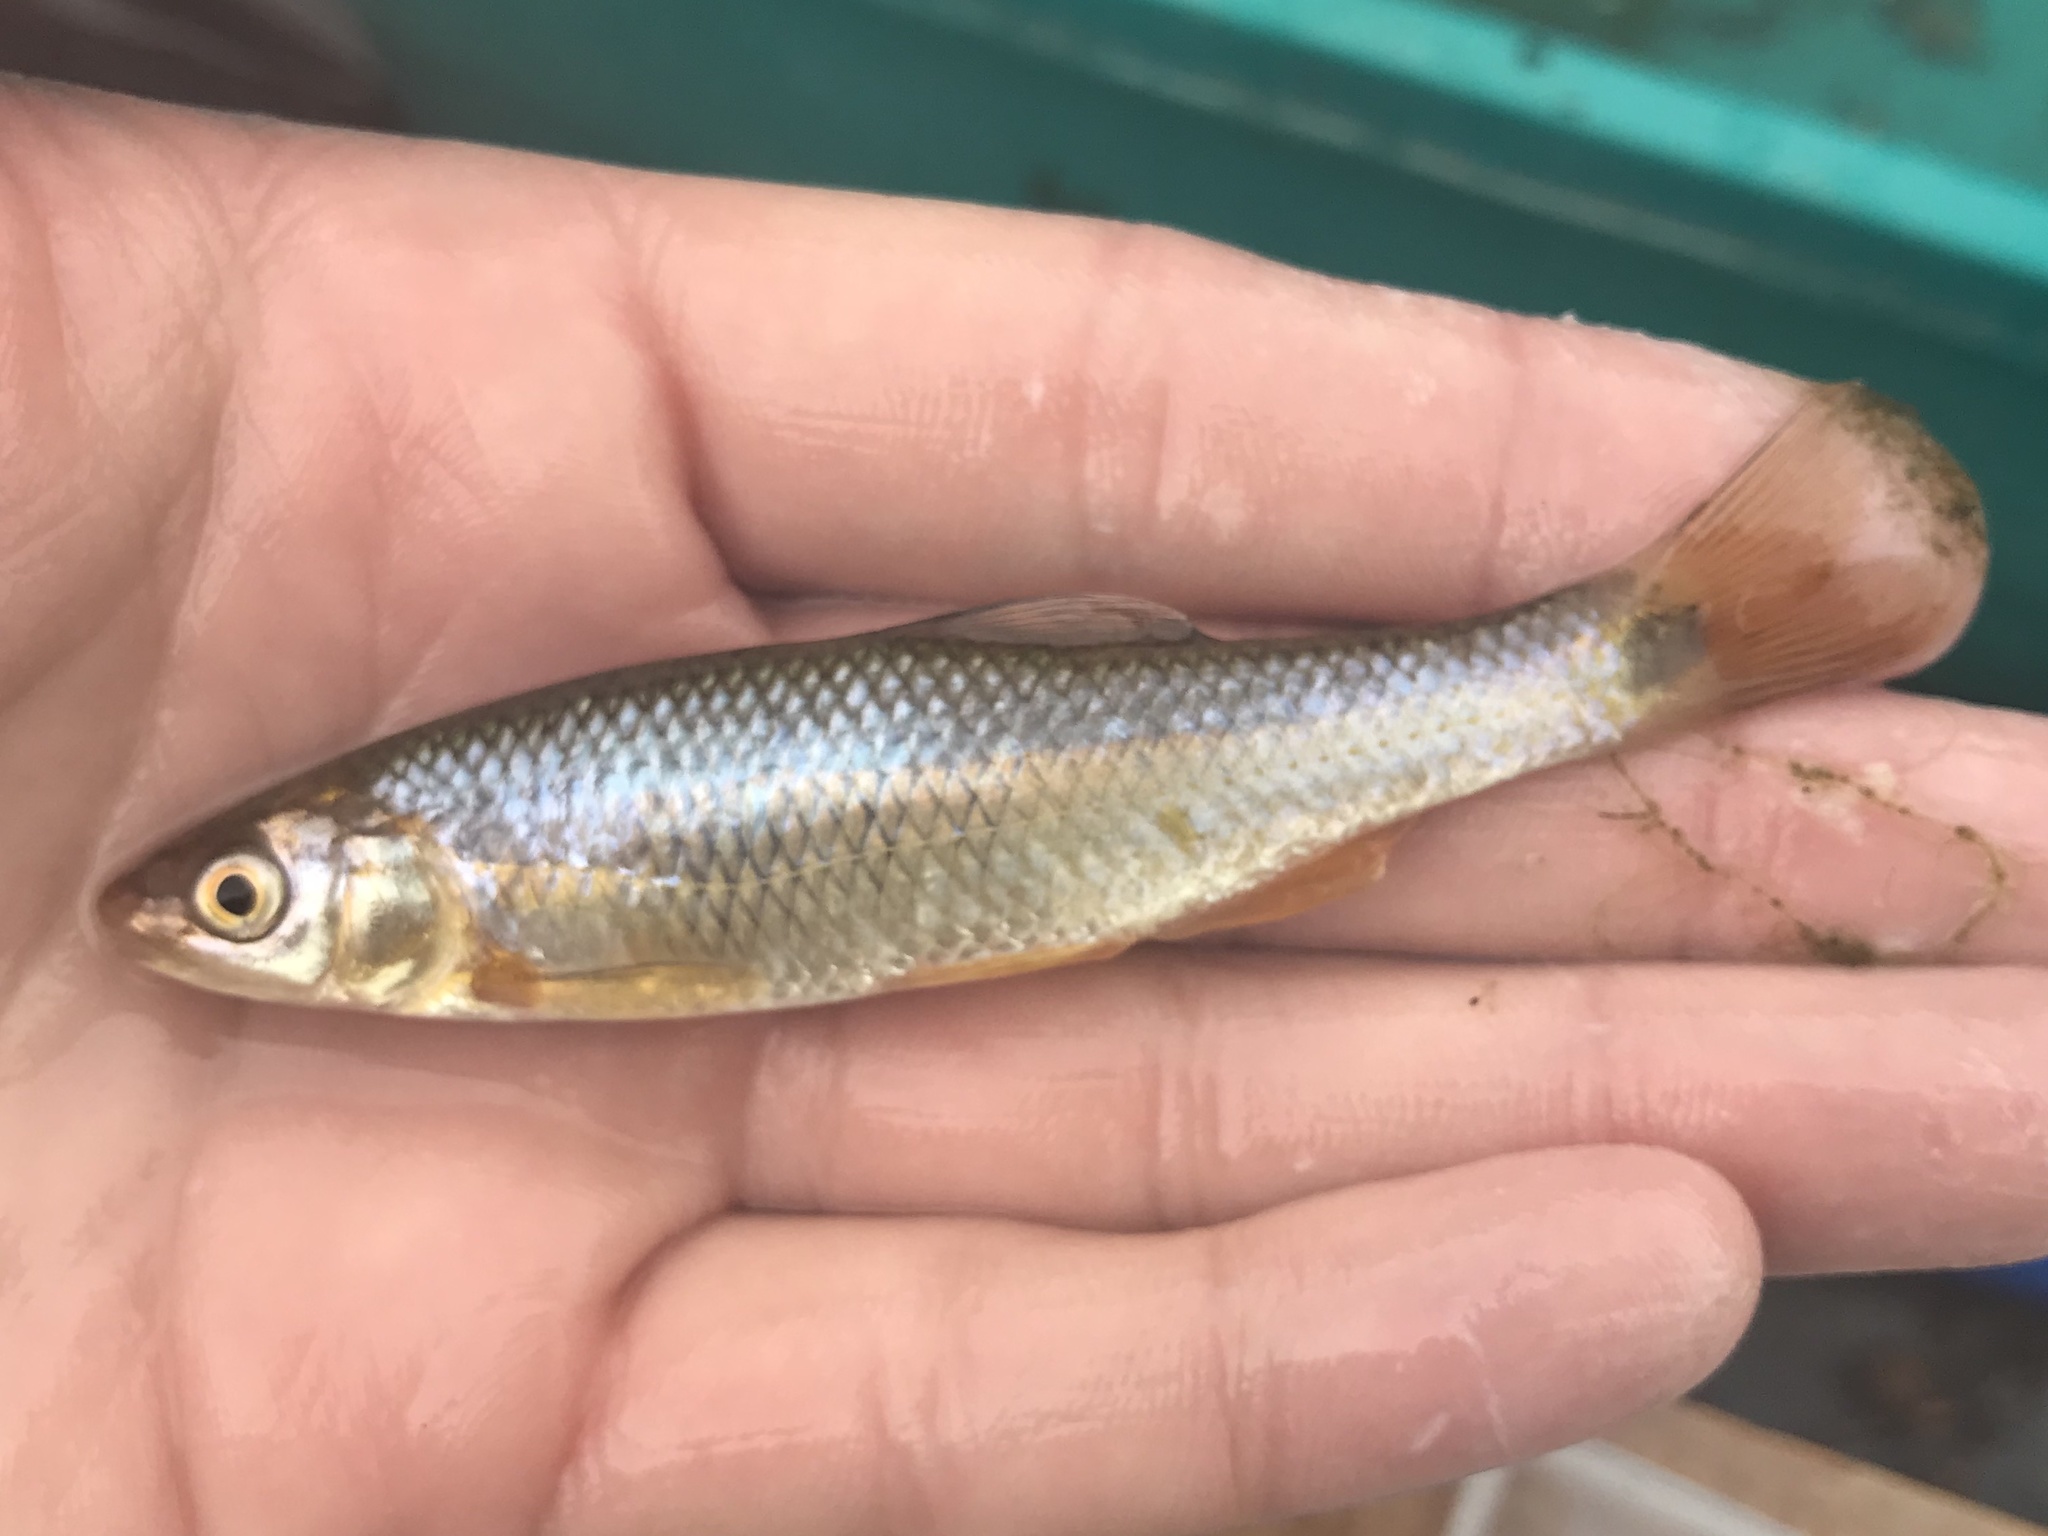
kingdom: Animalia
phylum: Chordata
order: Cypriniformes
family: Cyprinidae
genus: Cyprinella
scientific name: Cyprinella venusta
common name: Blacktail shiner
